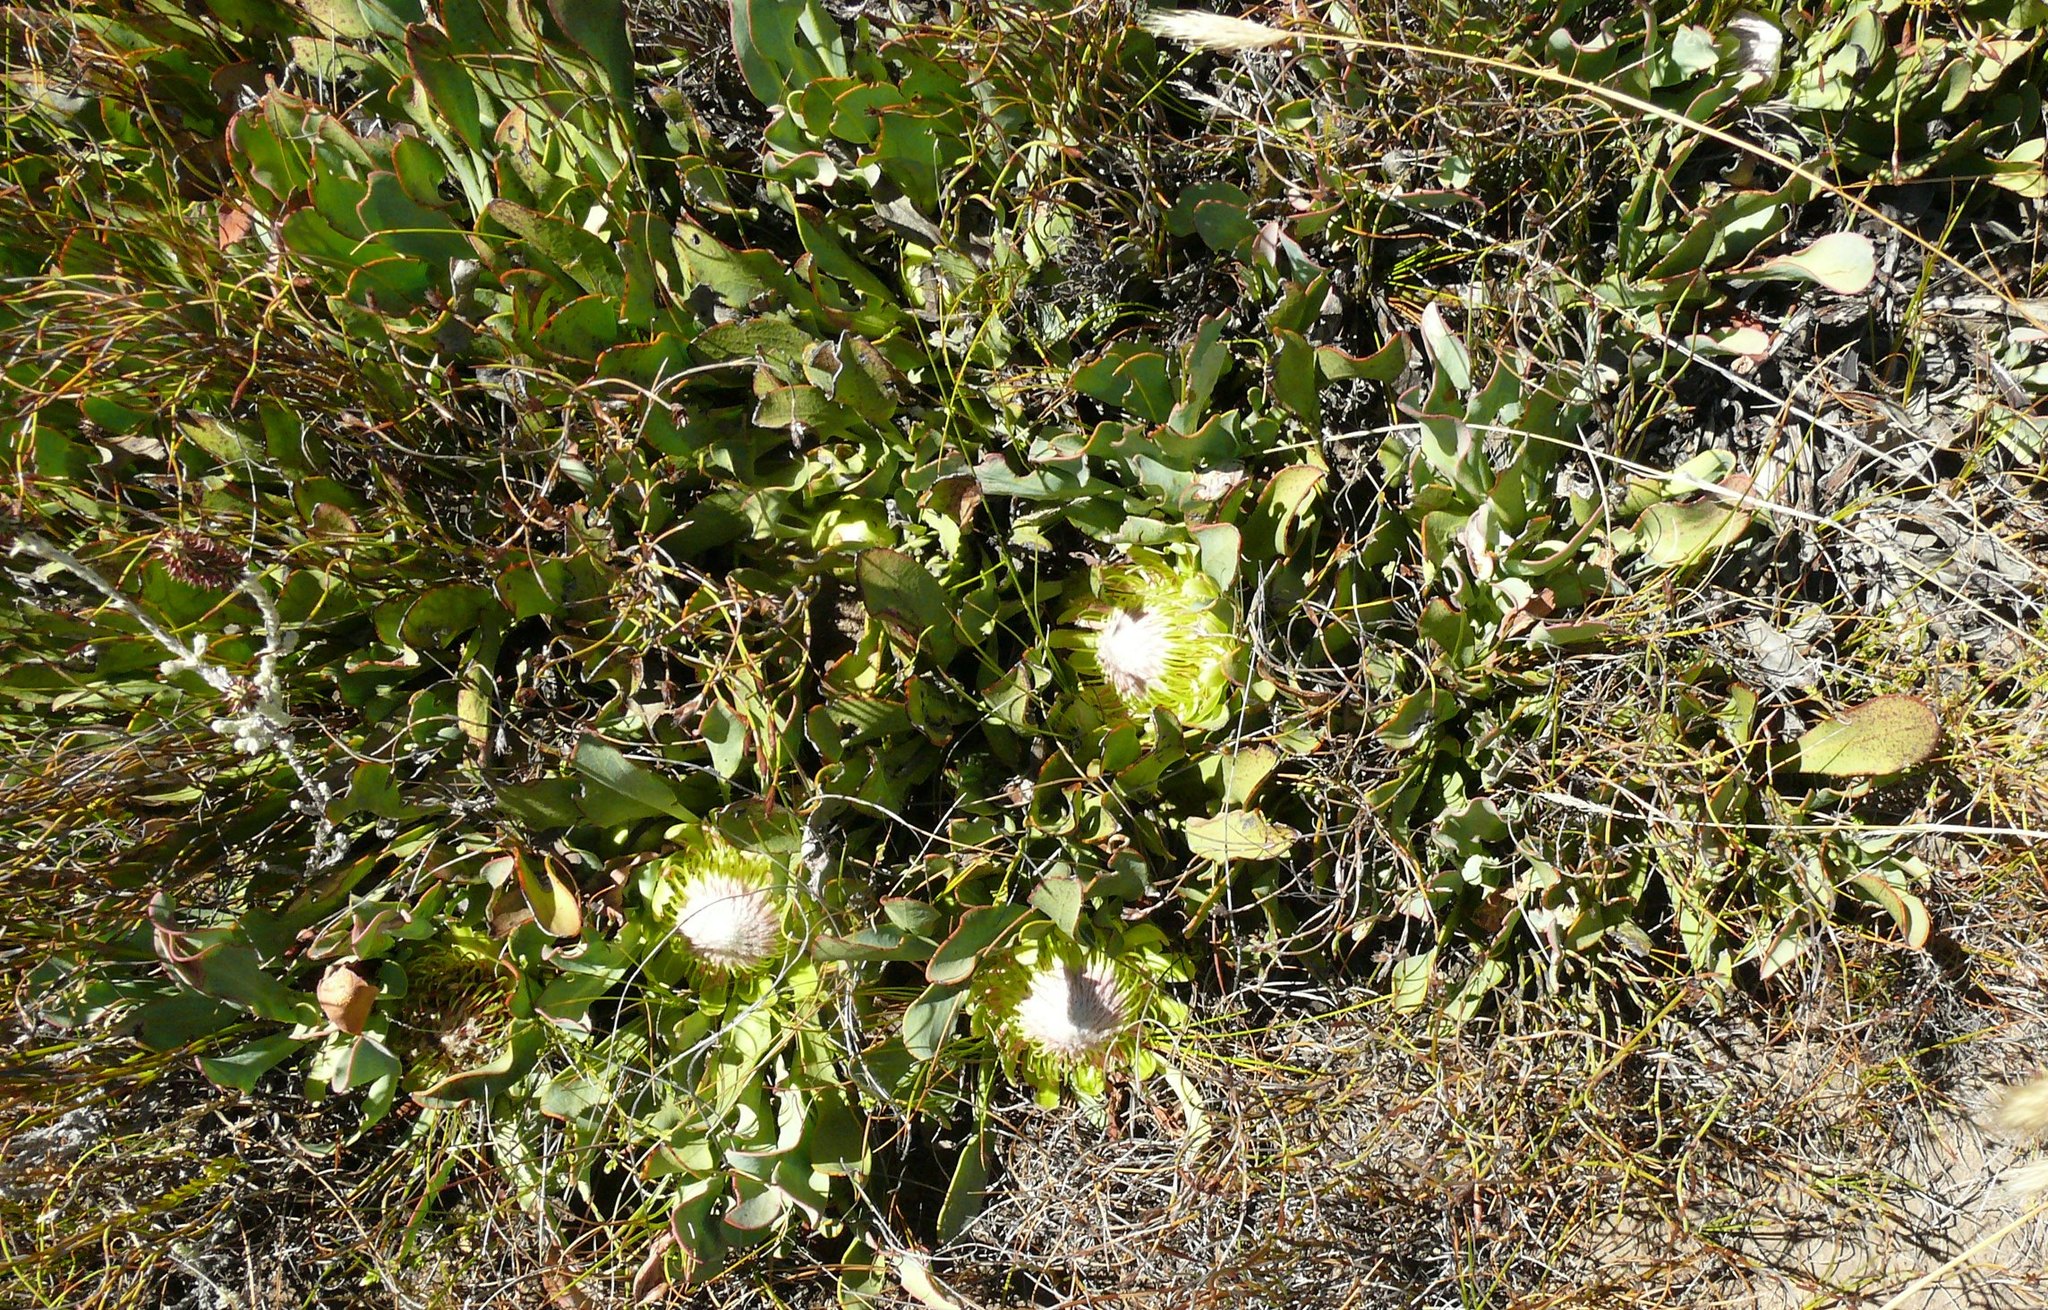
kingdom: Plantae
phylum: Tracheophyta
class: Magnoliopsida
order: Proteales
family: Proteaceae
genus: Protea
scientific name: Protea laevis
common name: Smooth-leaf sugarbush
